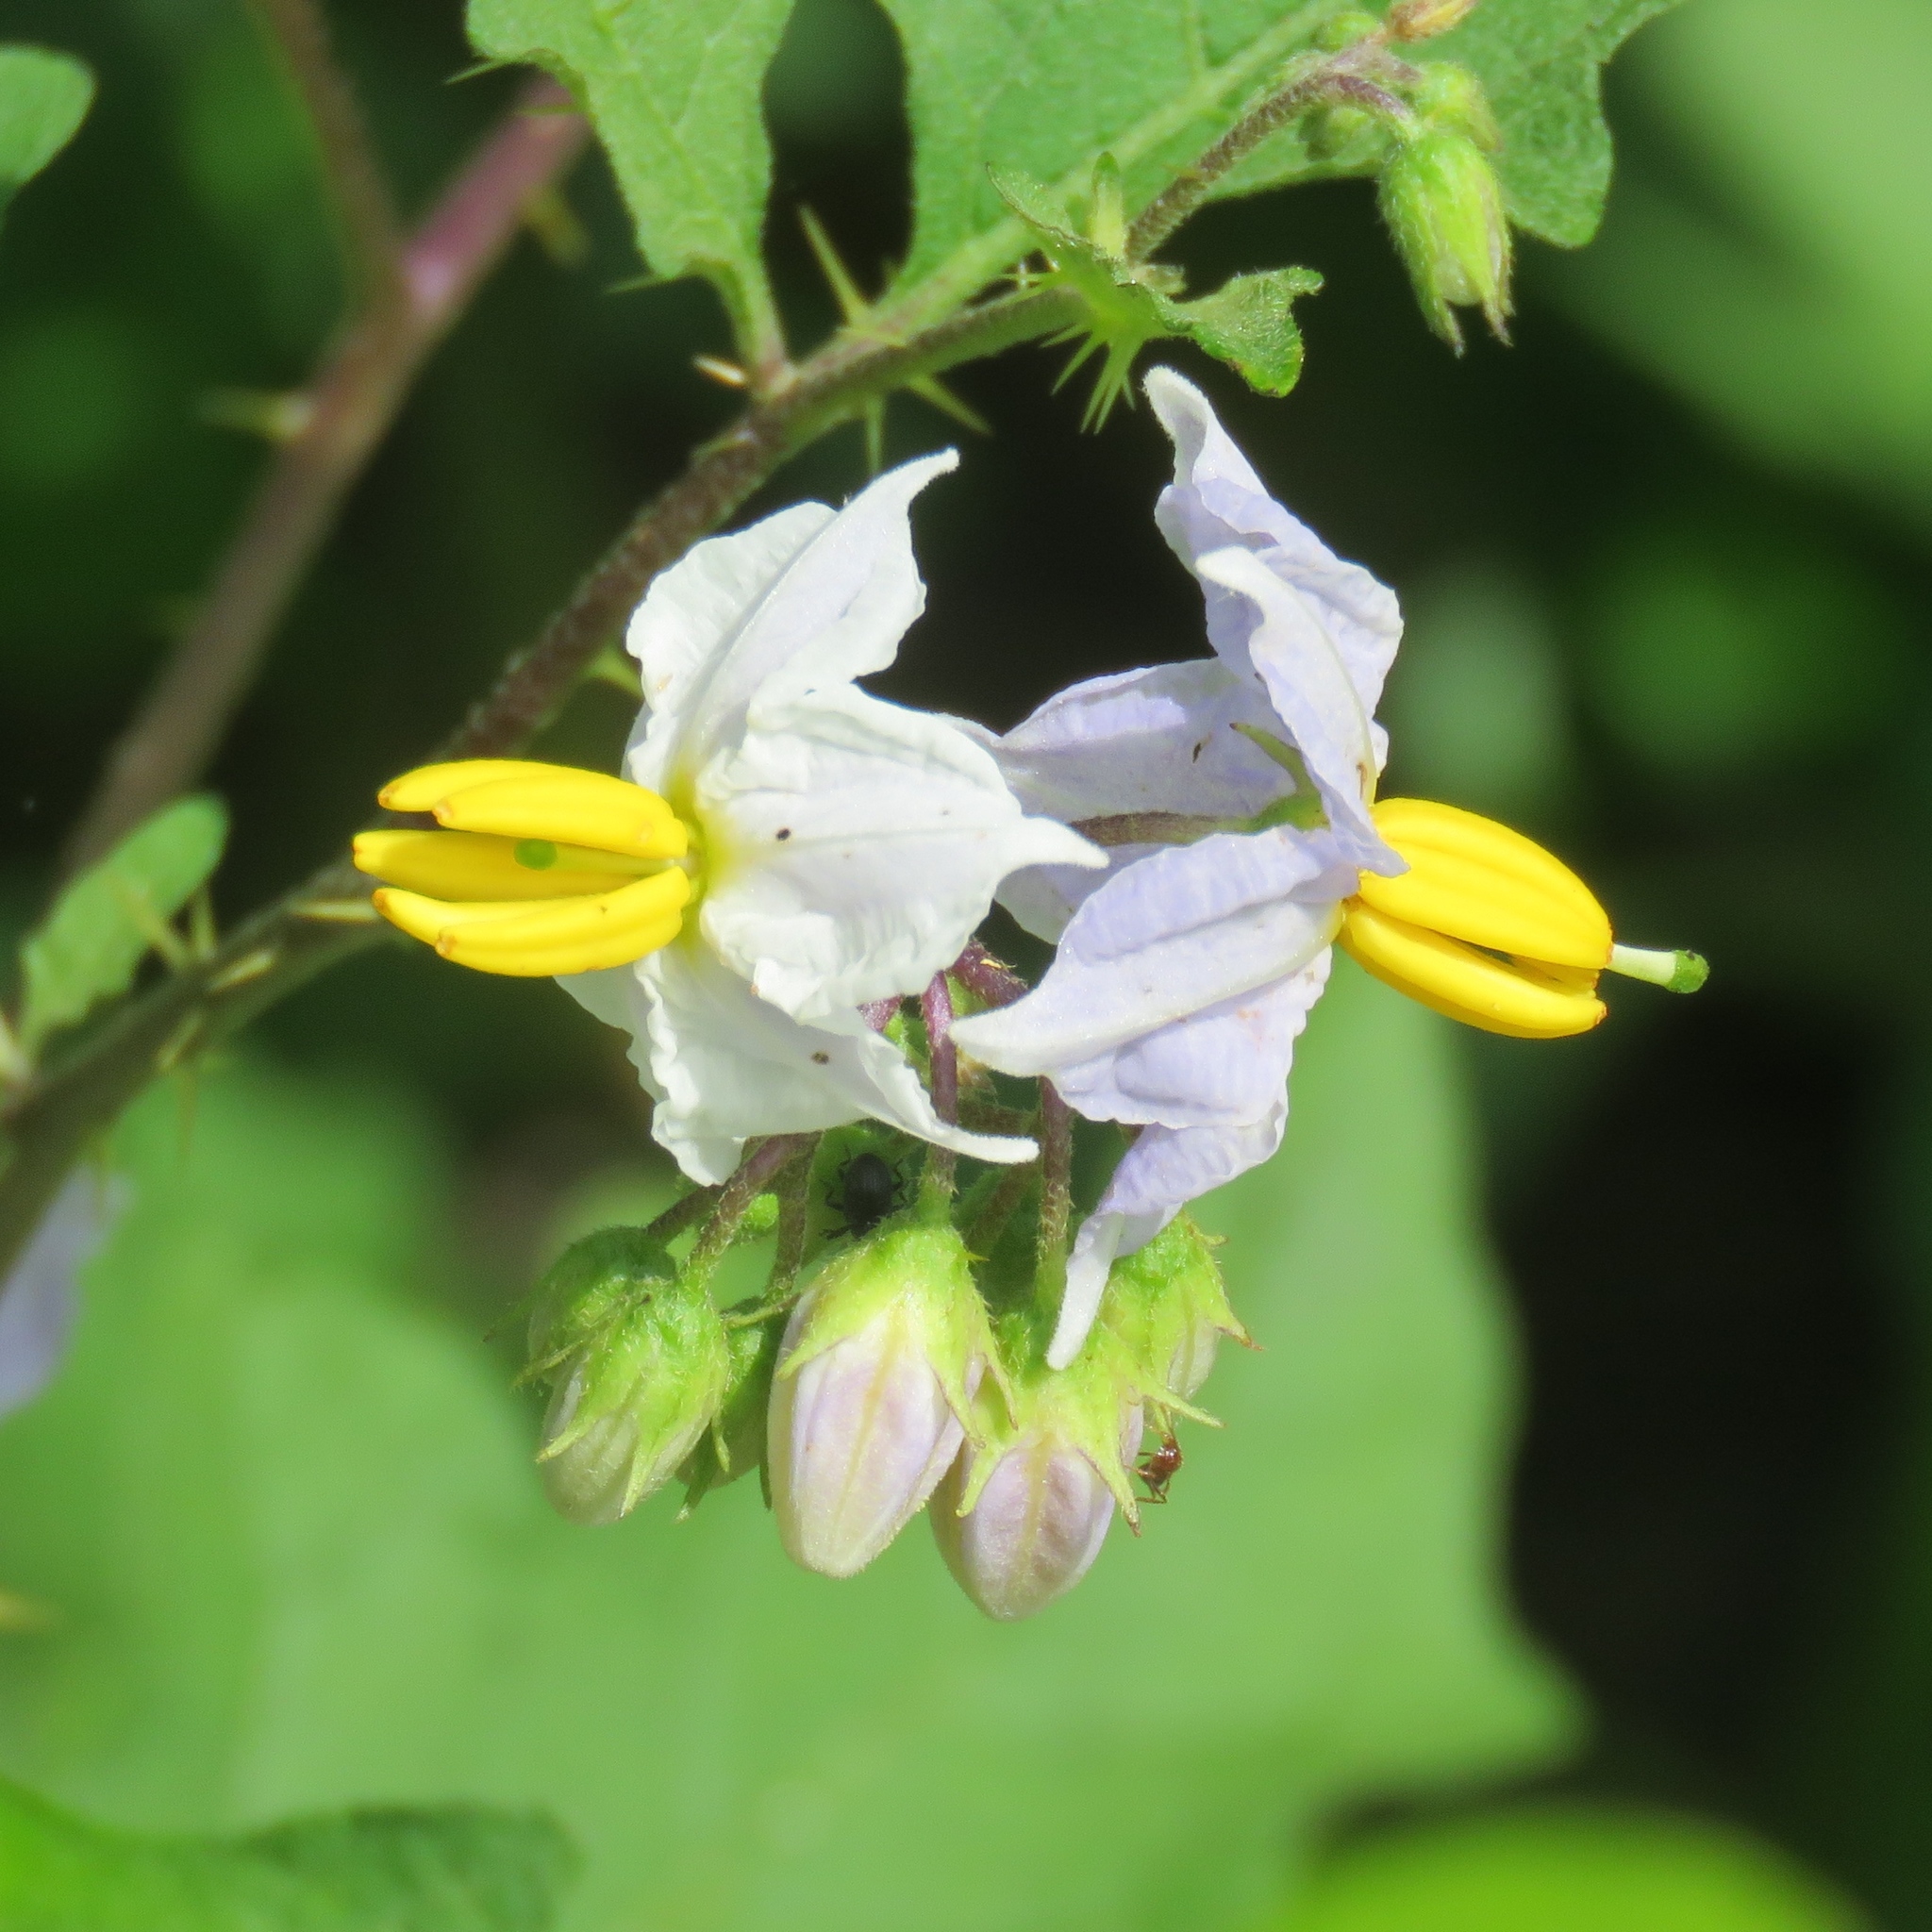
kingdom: Plantae
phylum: Tracheophyta
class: Magnoliopsida
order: Solanales
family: Solanaceae
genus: Solanum
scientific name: Solanum carolinense
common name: Horse-nettle
